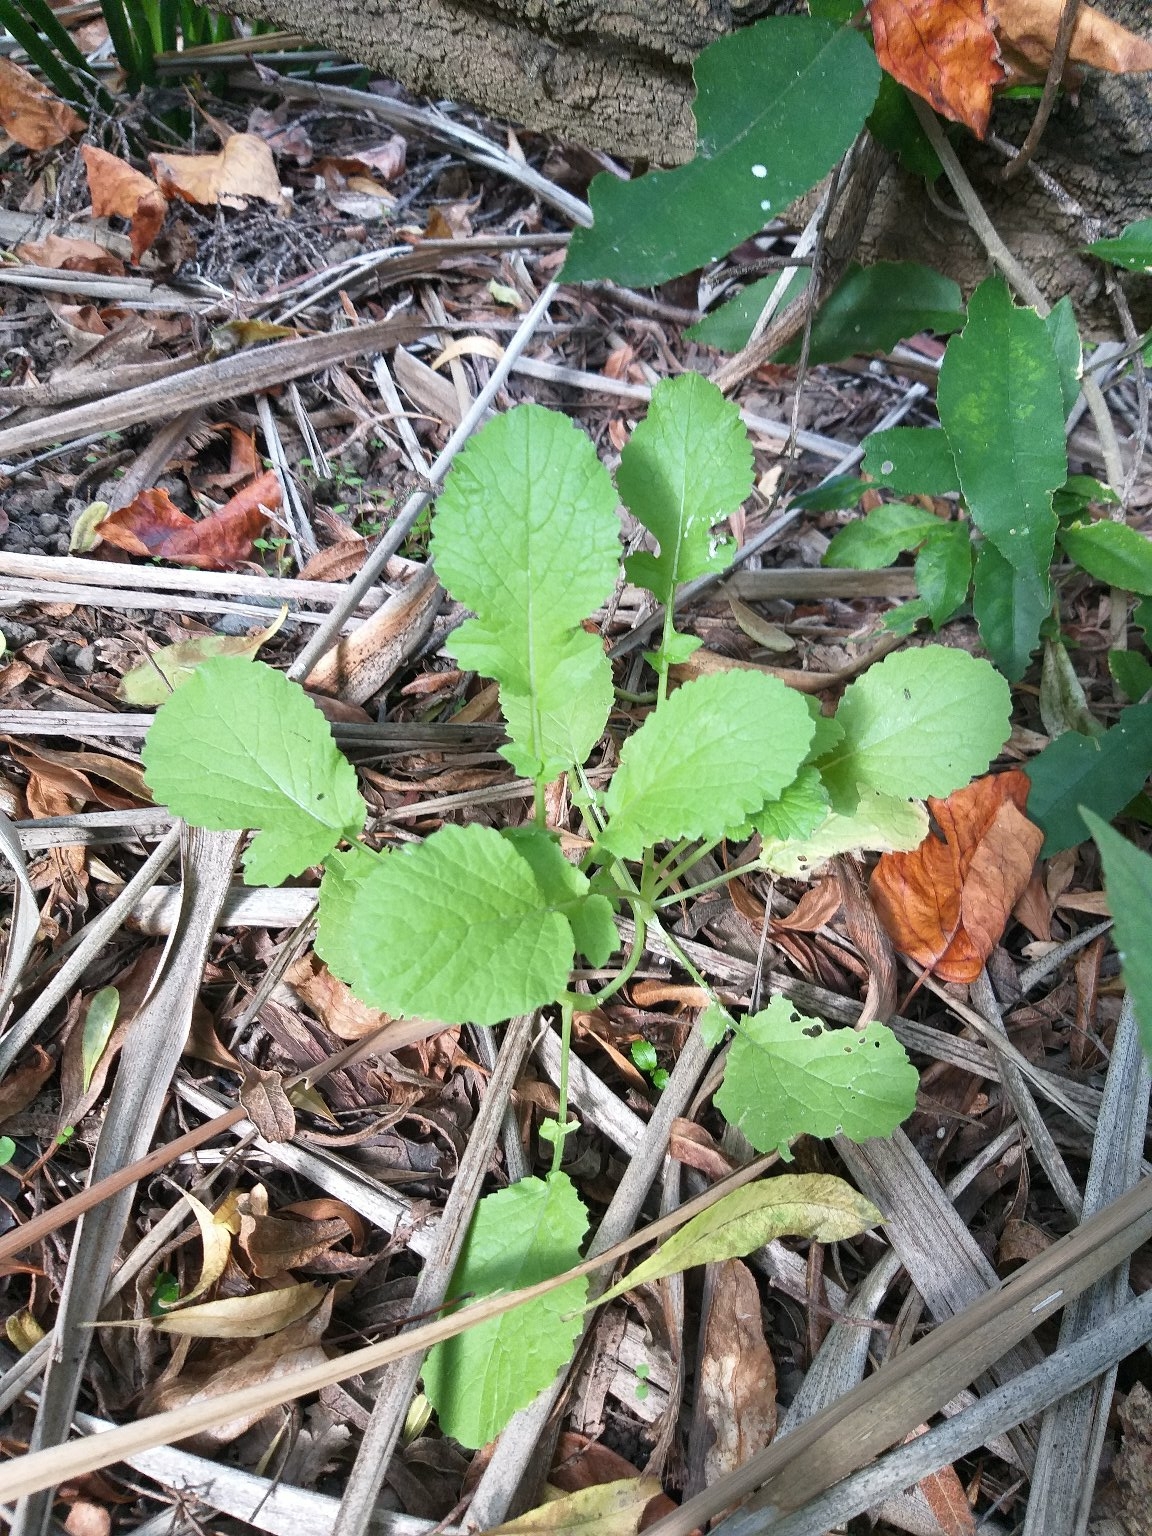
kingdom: Plantae
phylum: Tracheophyta
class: Magnoliopsida
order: Asterales
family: Asteraceae
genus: Lapsana
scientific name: Lapsana communis
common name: Nipplewort
